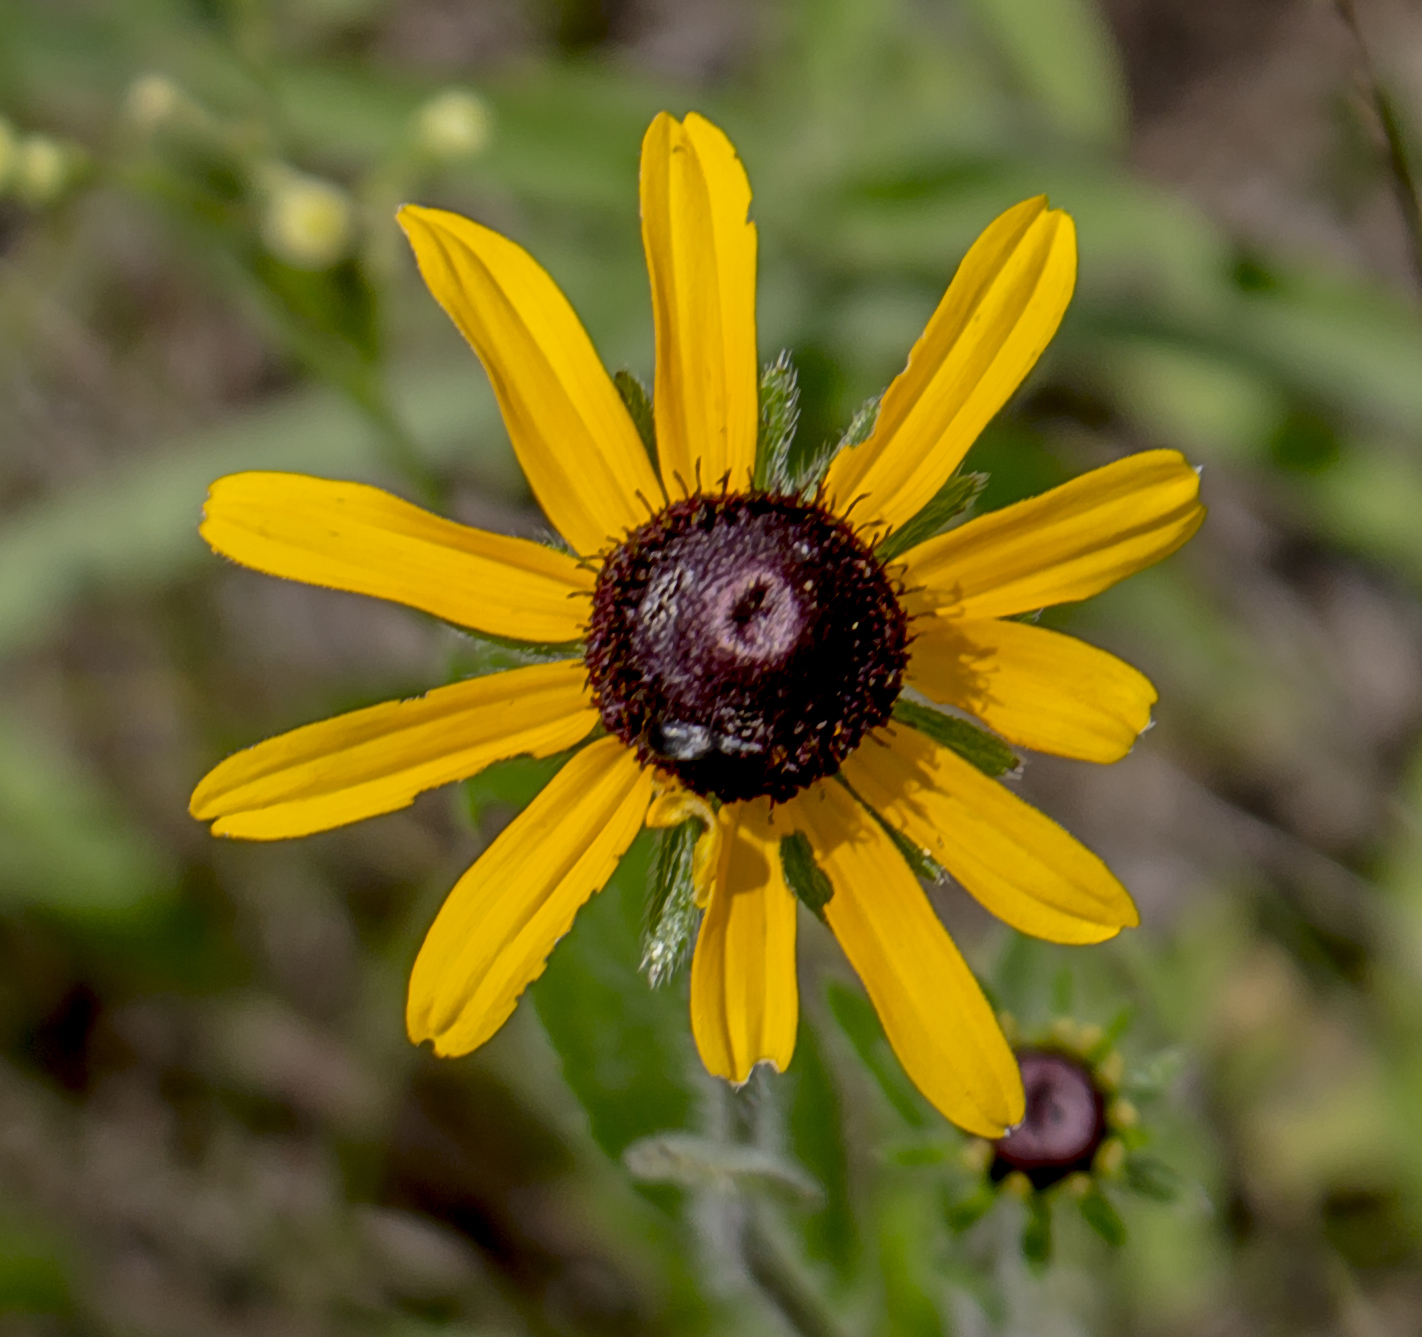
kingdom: Plantae
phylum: Tracheophyta
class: Magnoliopsida
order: Asterales
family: Asteraceae
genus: Rudbeckia
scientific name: Rudbeckia hirta
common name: Black-eyed-susan
